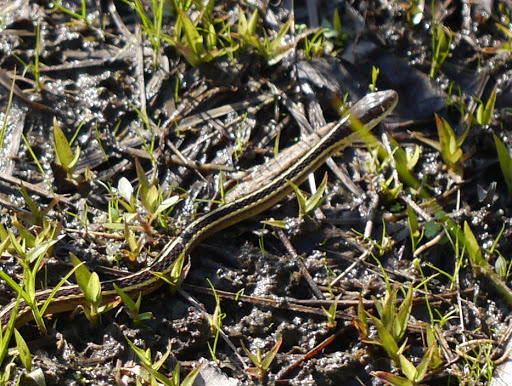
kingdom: Animalia
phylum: Chordata
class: Squamata
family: Colubridae
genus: Thamnophis
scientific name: Thamnophis saurita
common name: Eastern ribbonsnake
